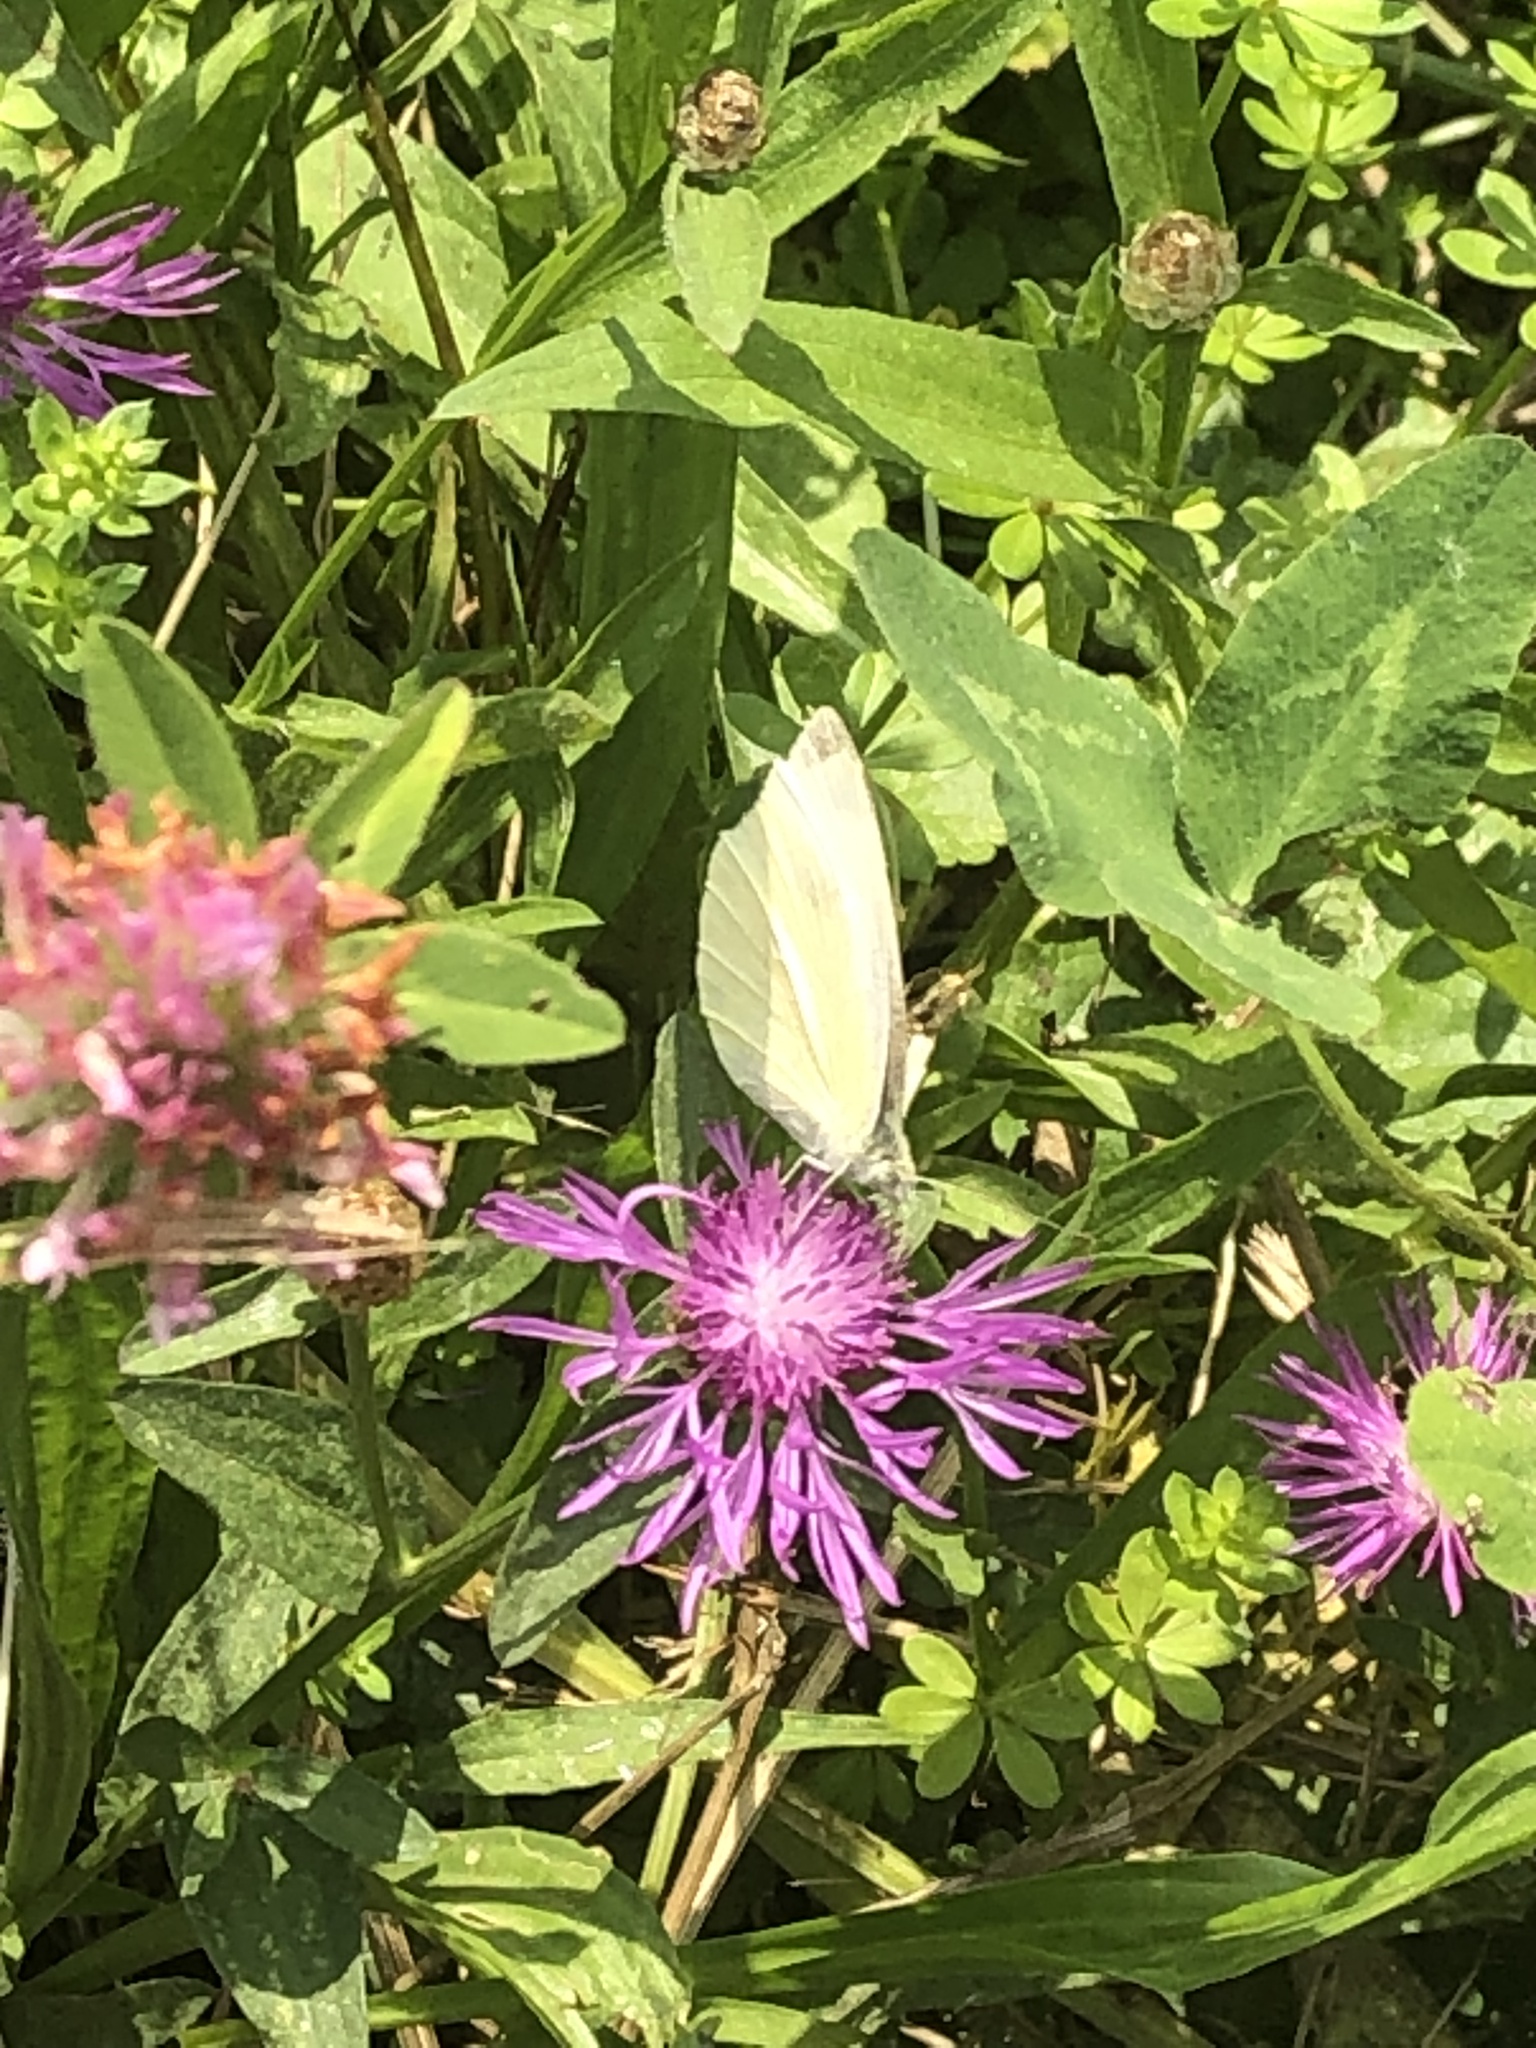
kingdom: Animalia
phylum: Arthropoda
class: Insecta
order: Lepidoptera
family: Pieridae
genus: Pieris
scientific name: Pieris rapae
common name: Small white
